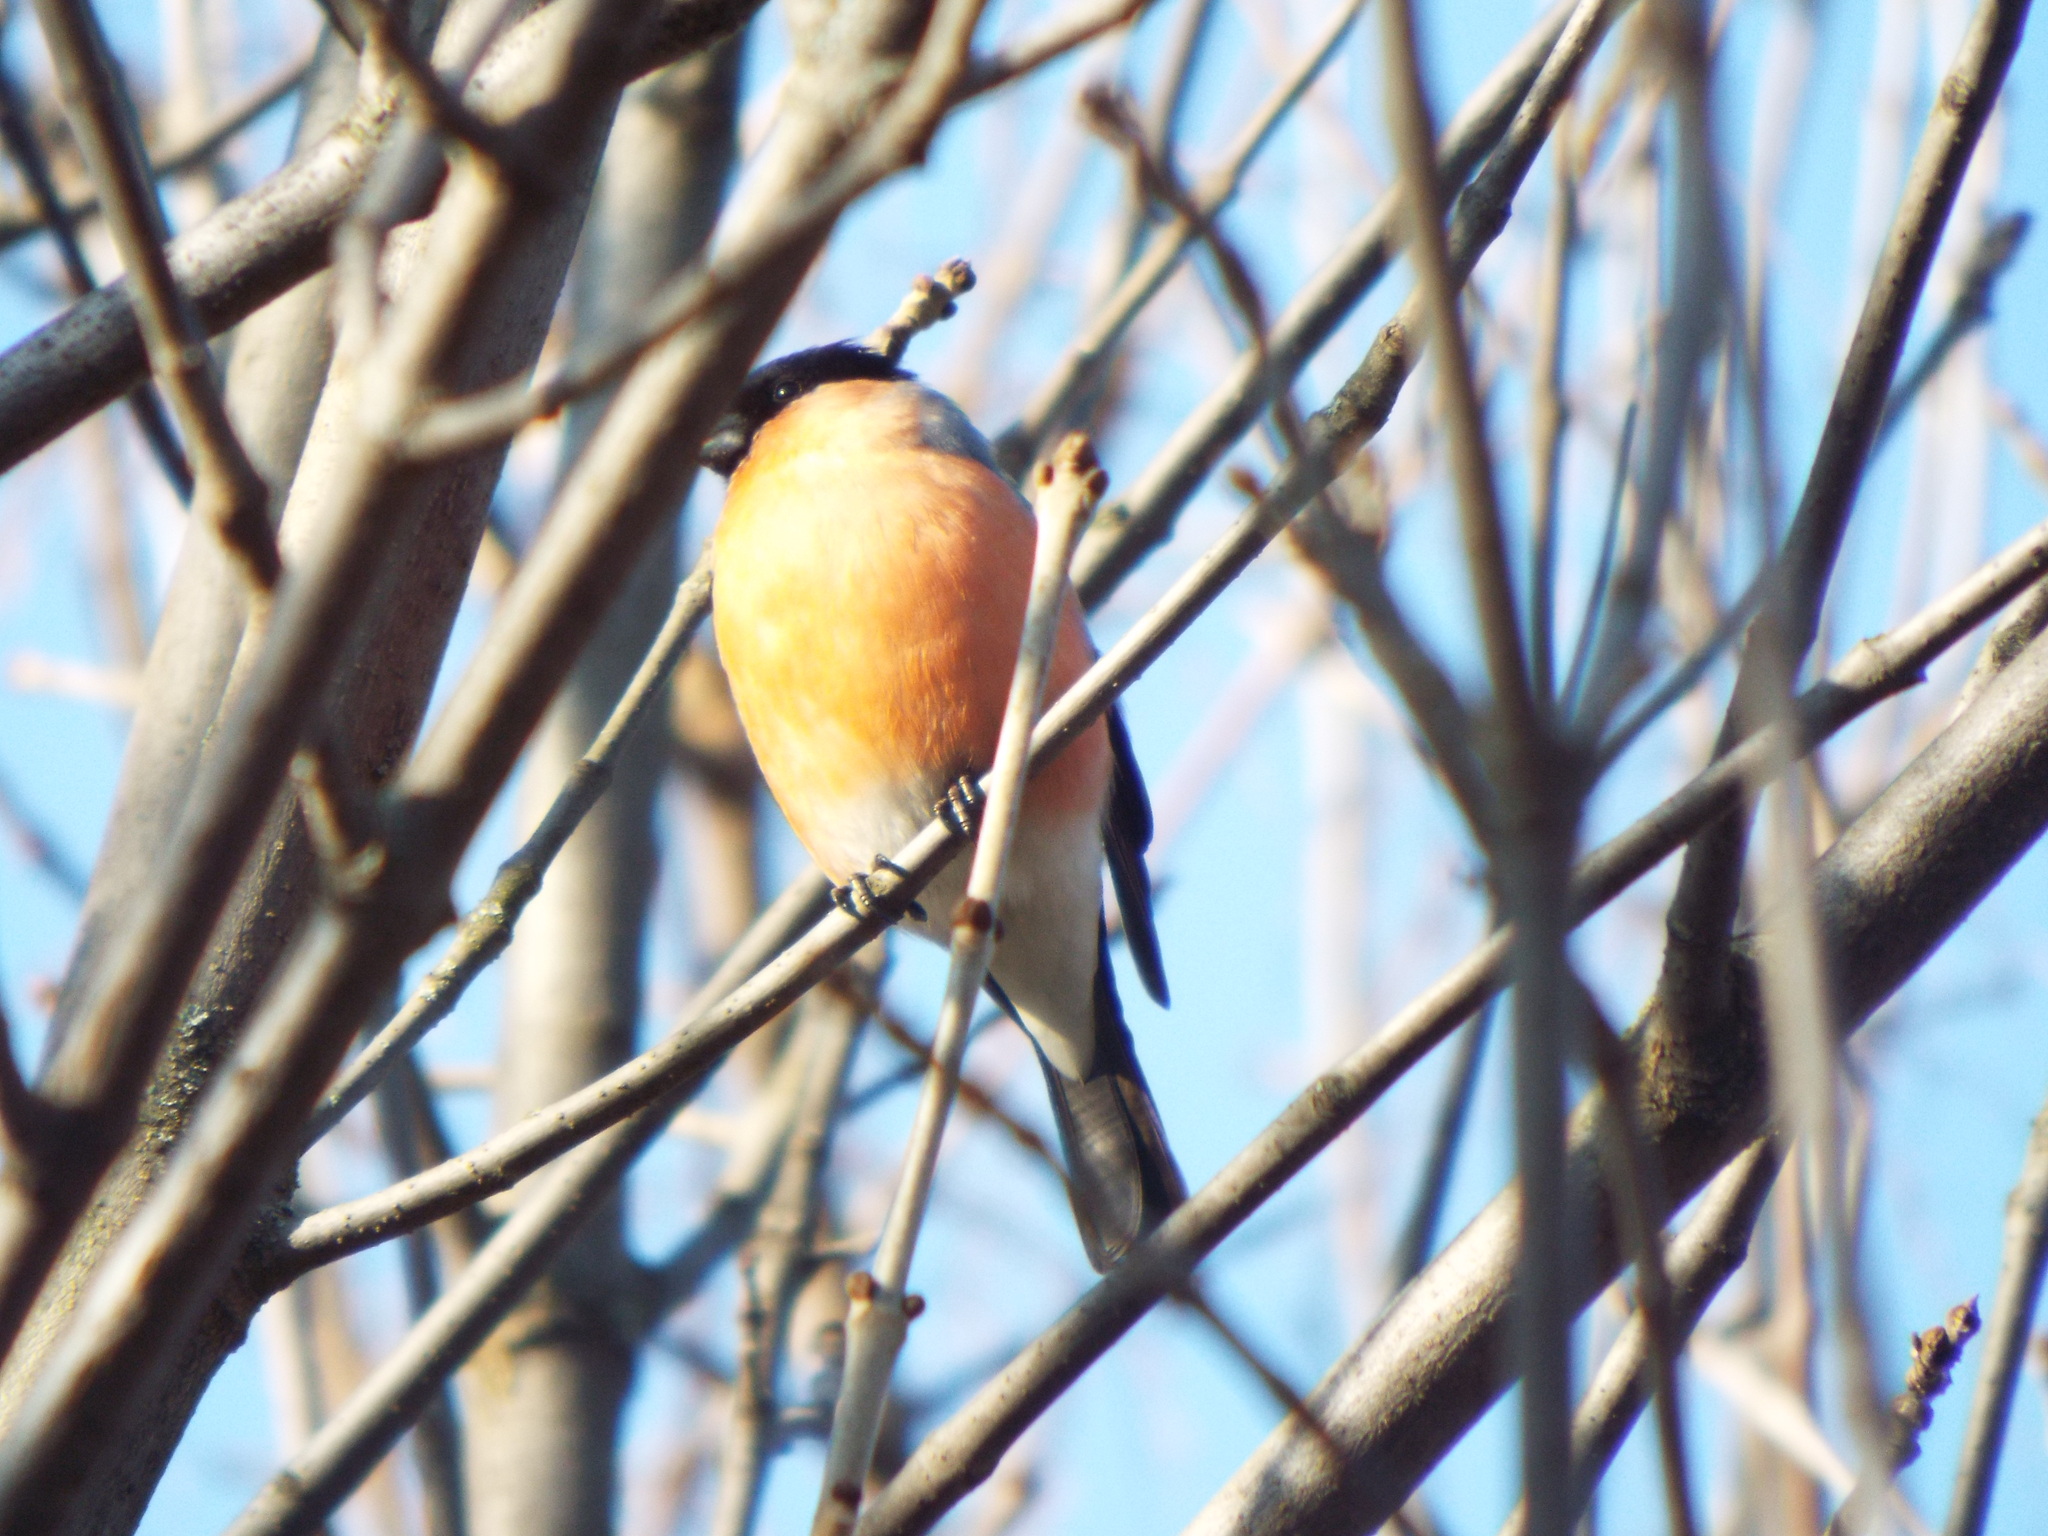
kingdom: Animalia
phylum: Chordata
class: Aves
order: Passeriformes
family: Fringillidae
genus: Pyrrhula
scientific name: Pyrrhula pyrrhula
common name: Eurasian bullfinch
